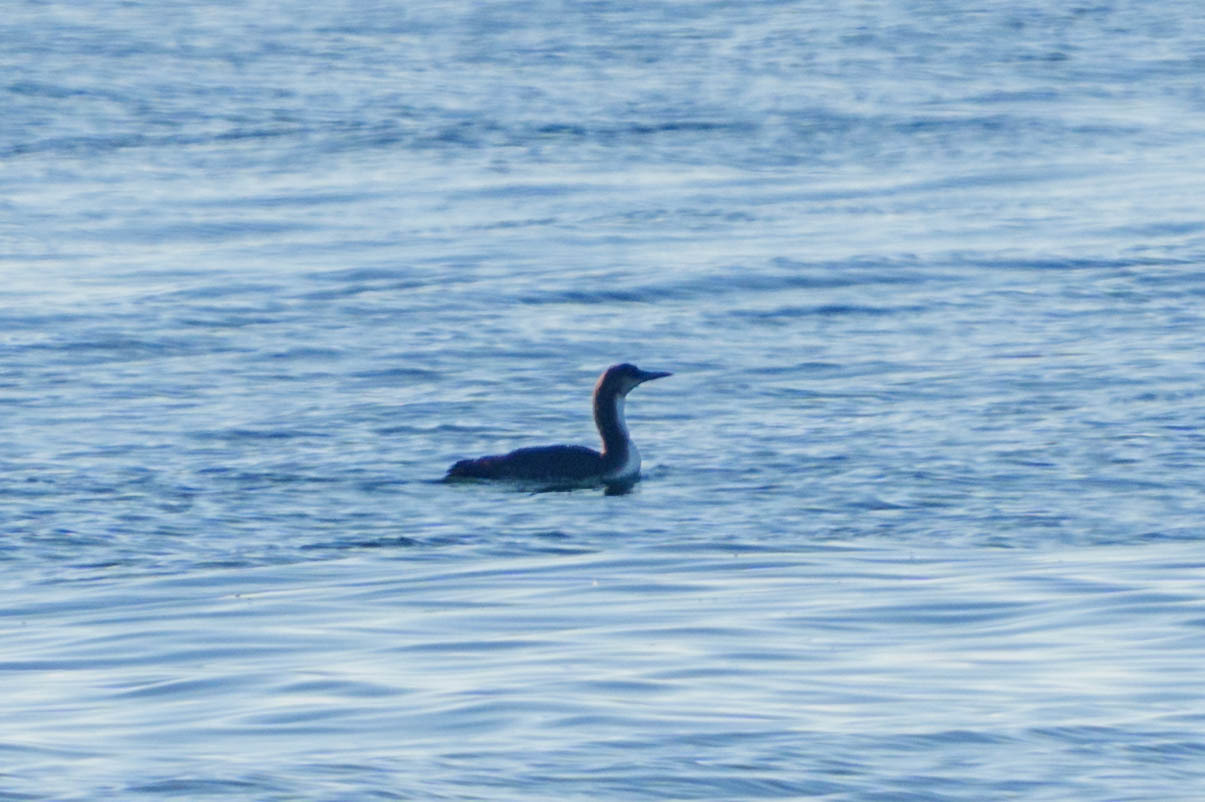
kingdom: Animalia
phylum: Chordata
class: Aves
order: Gaviiformes
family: Gaviidae
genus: Gavia
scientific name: Gavia pacifica
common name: Pacific loon
